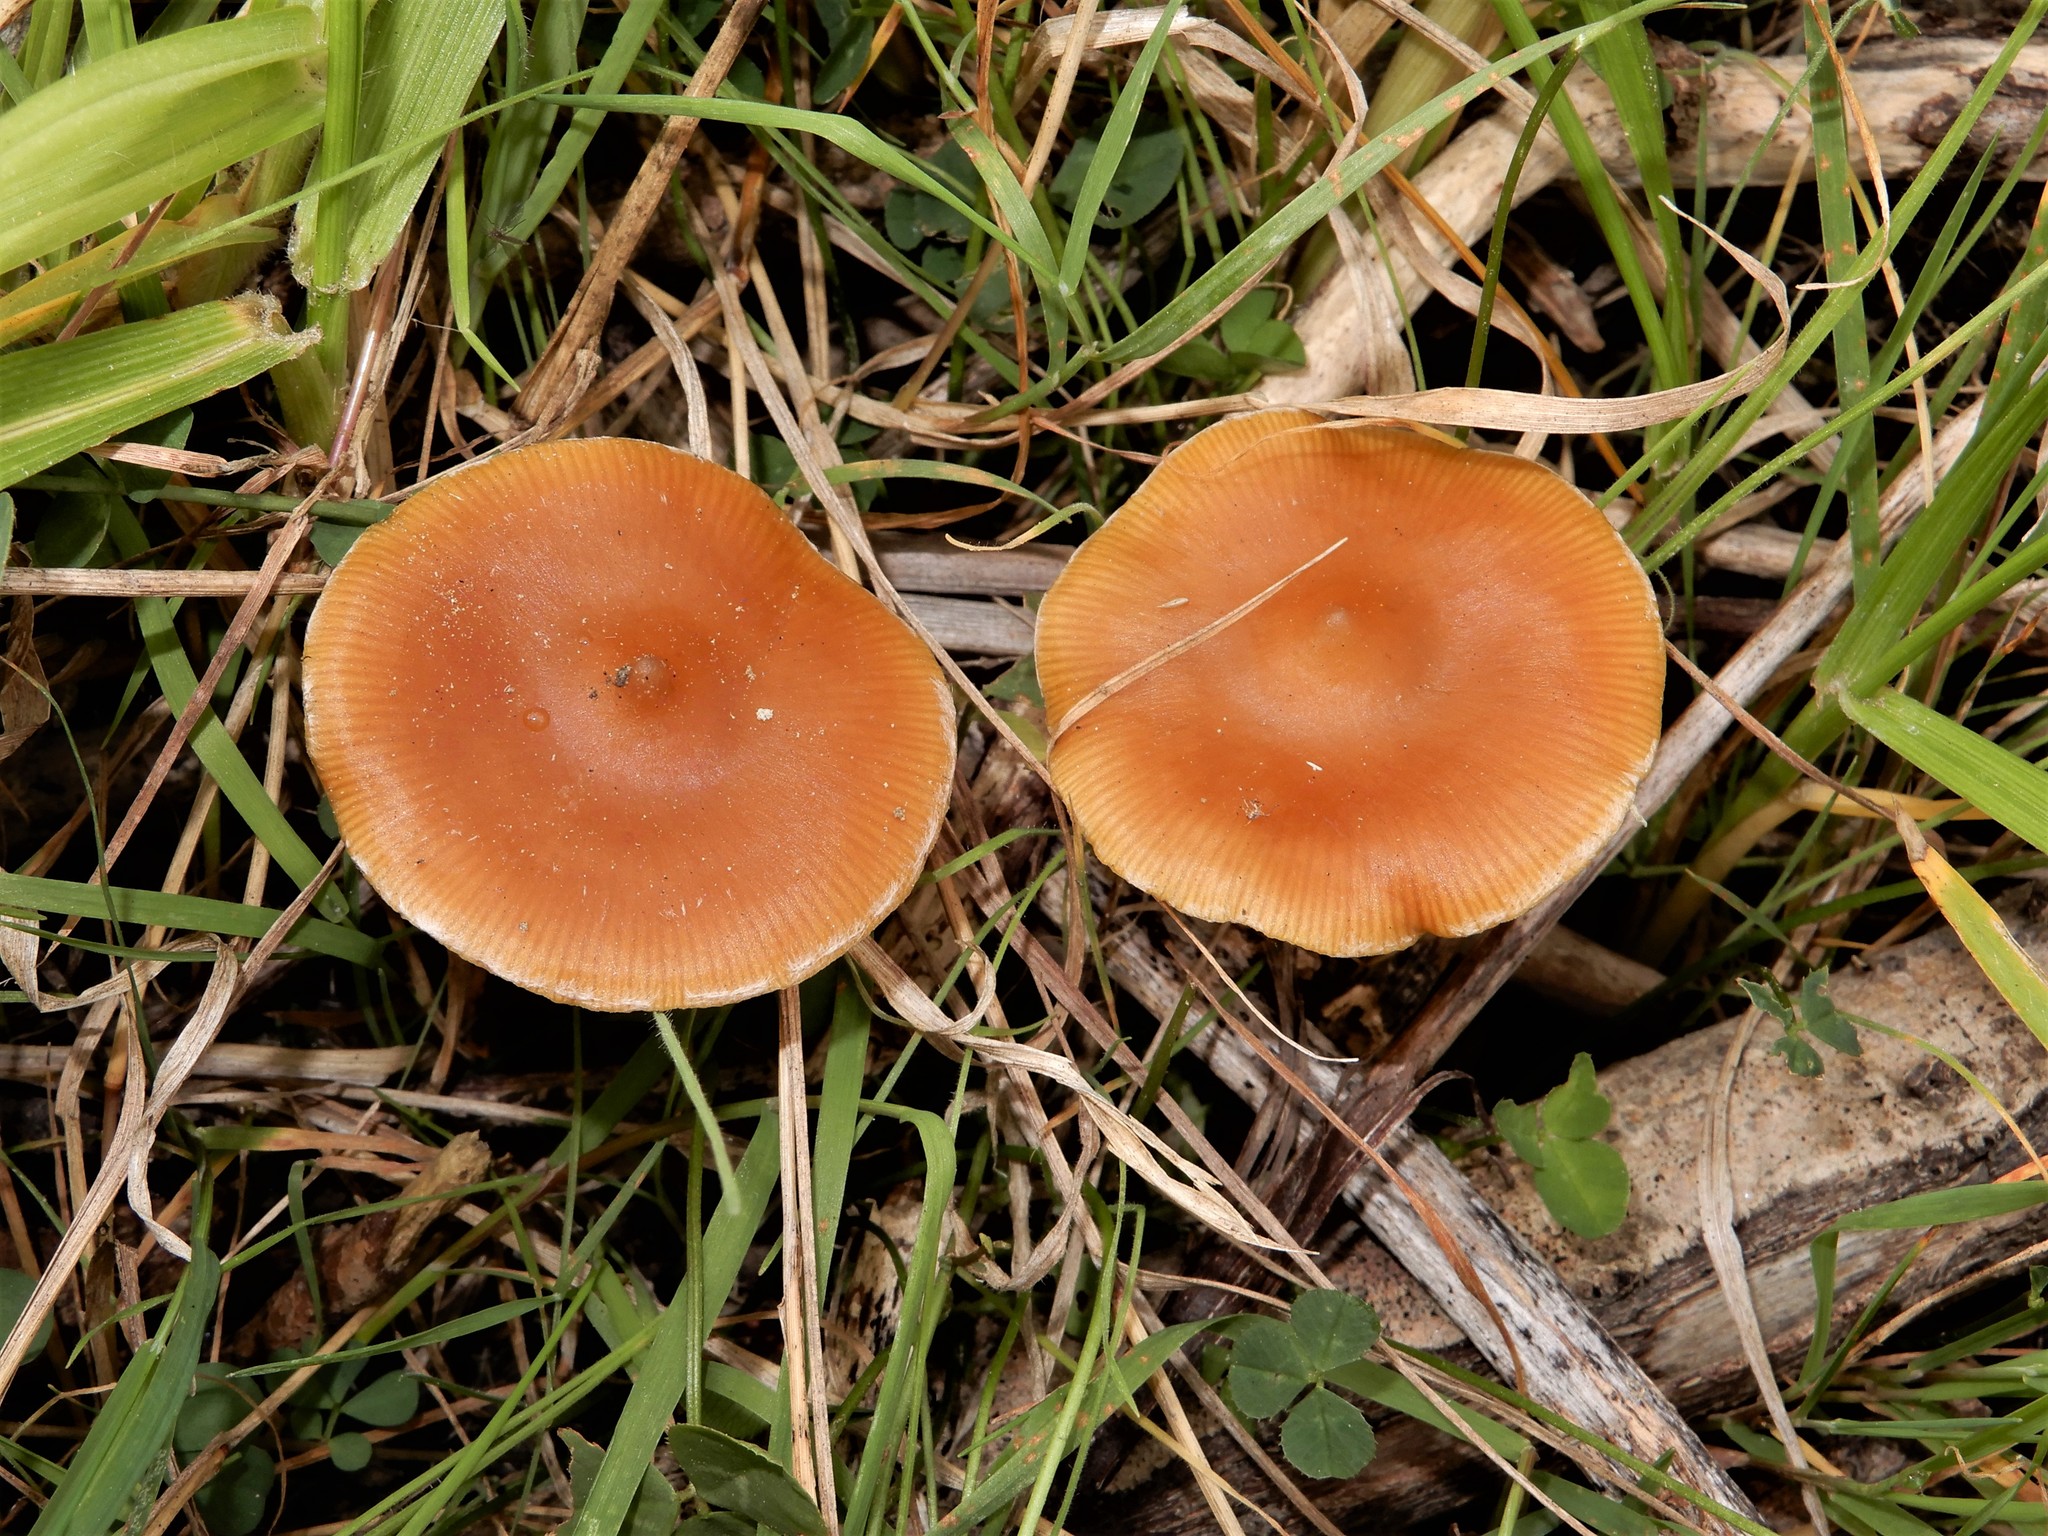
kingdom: Fungi
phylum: Basidiomycota
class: Agaricomycetes
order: Agaricales
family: Hymenogastraceae
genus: Psilocybe
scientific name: Psilocybe cyanescens
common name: Blueleg brownie
